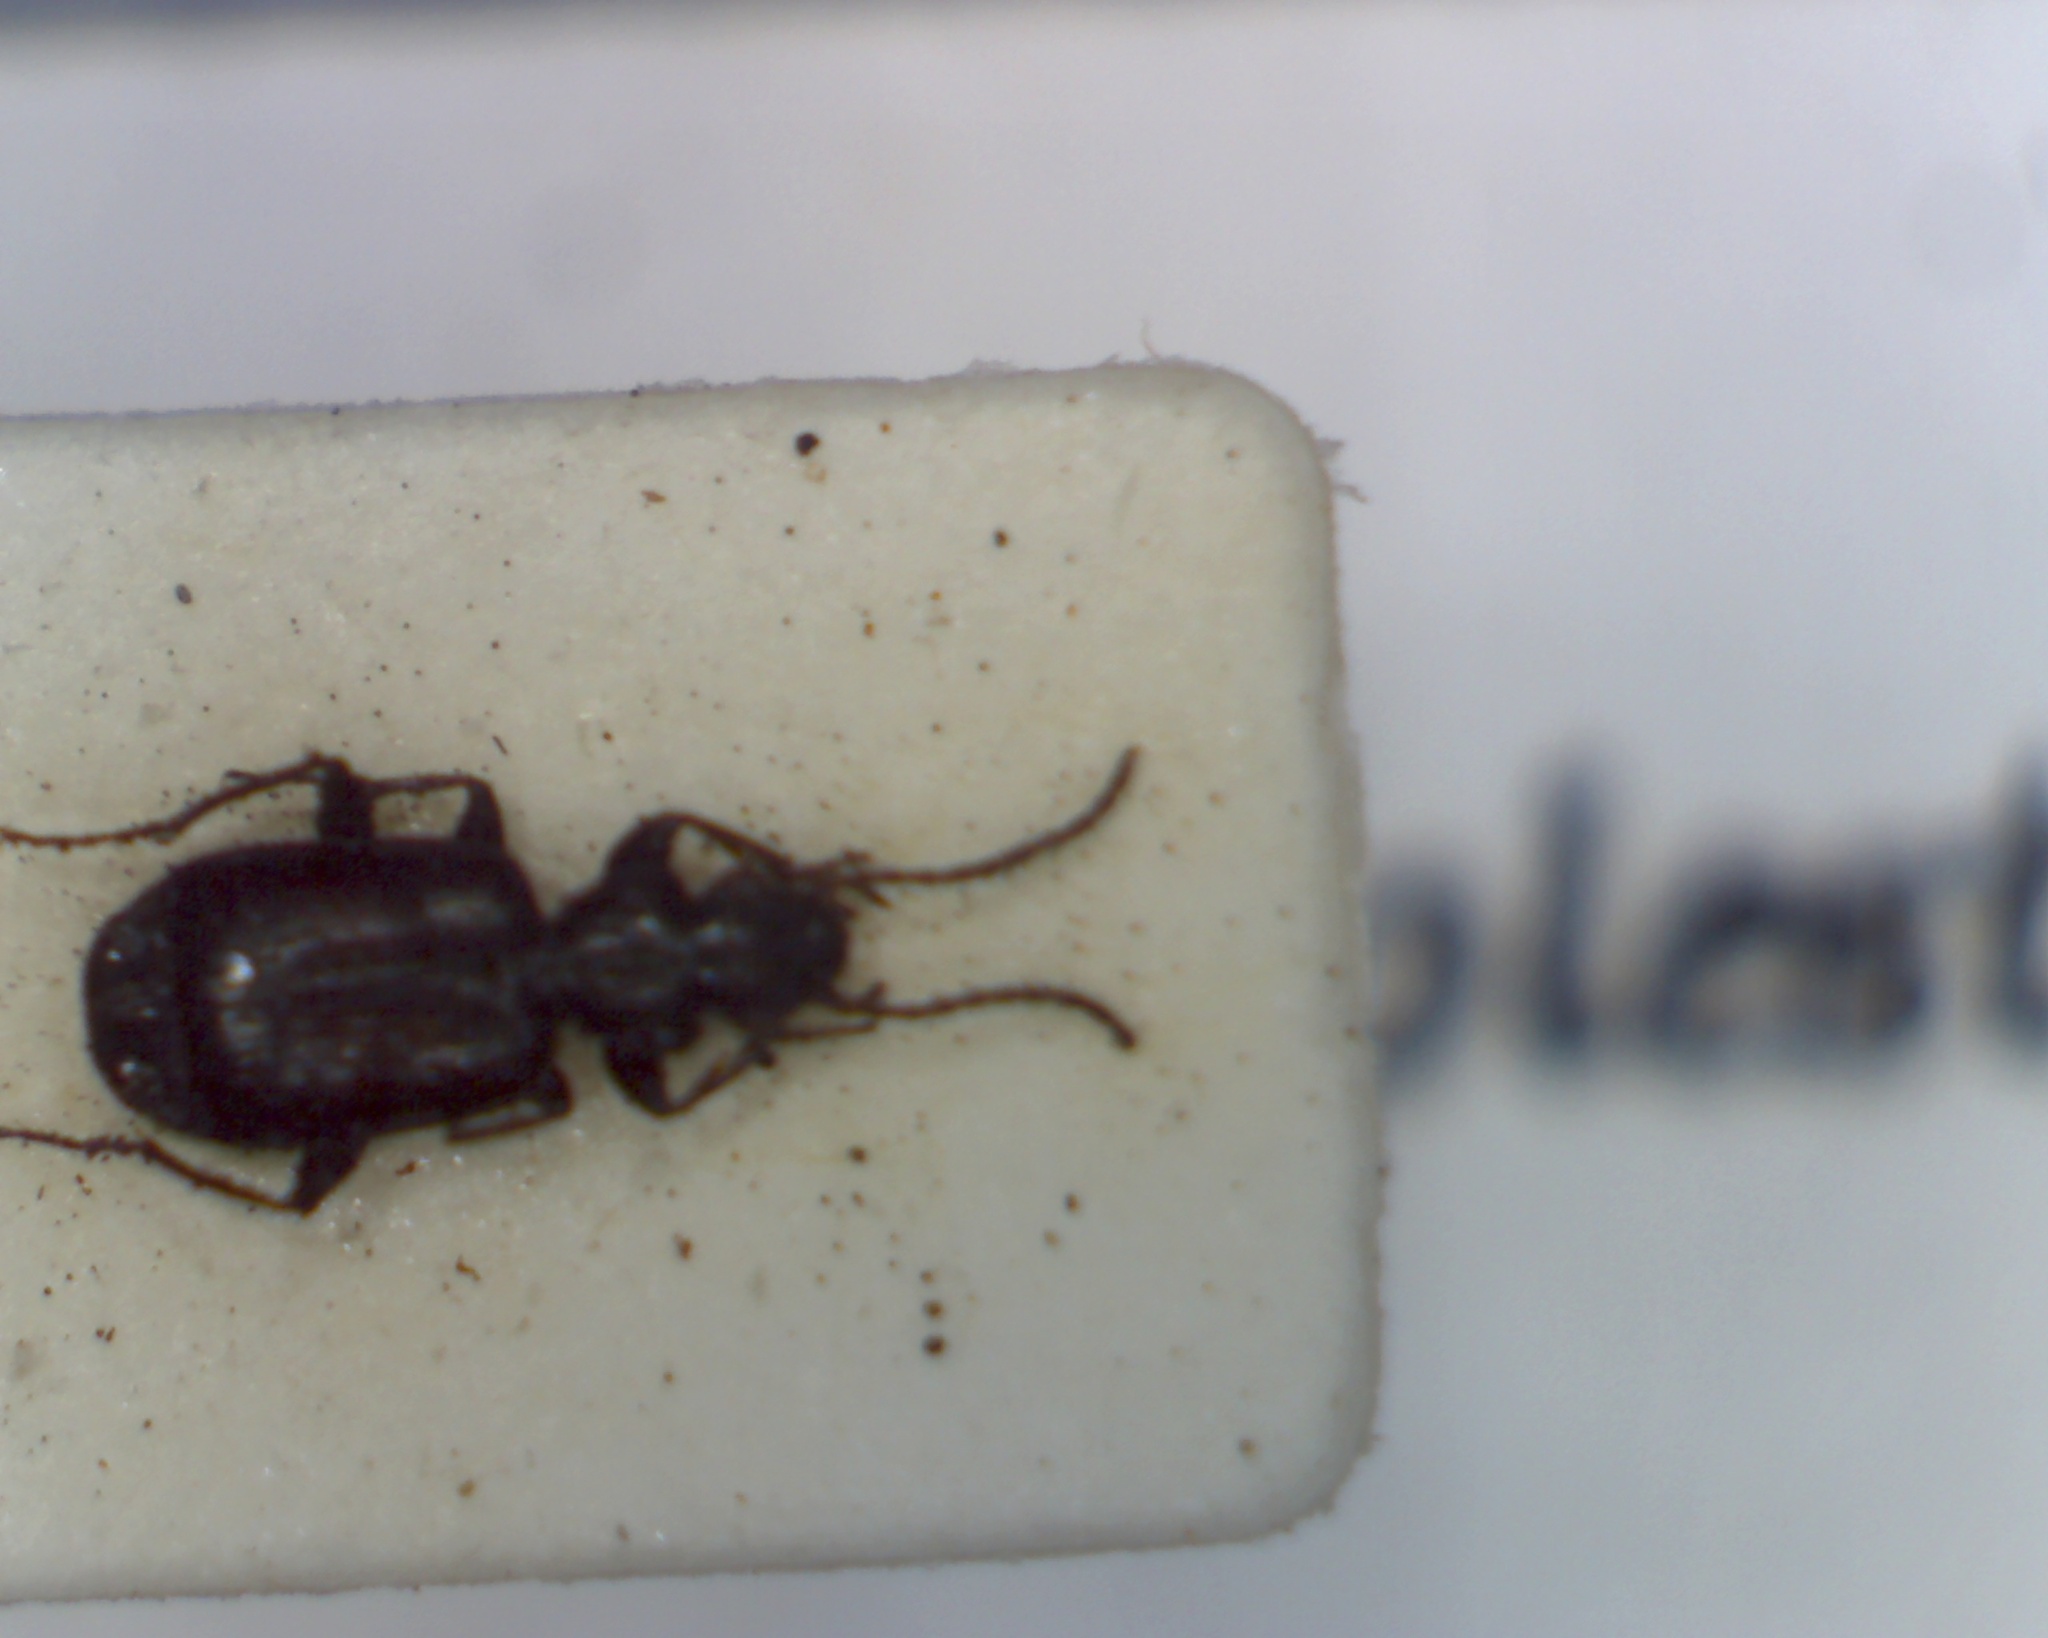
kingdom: Animalia
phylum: Arthropoda
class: Insecta
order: Coleoptera
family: Carabidae
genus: Microlestes
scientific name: Microlestes minutulus
